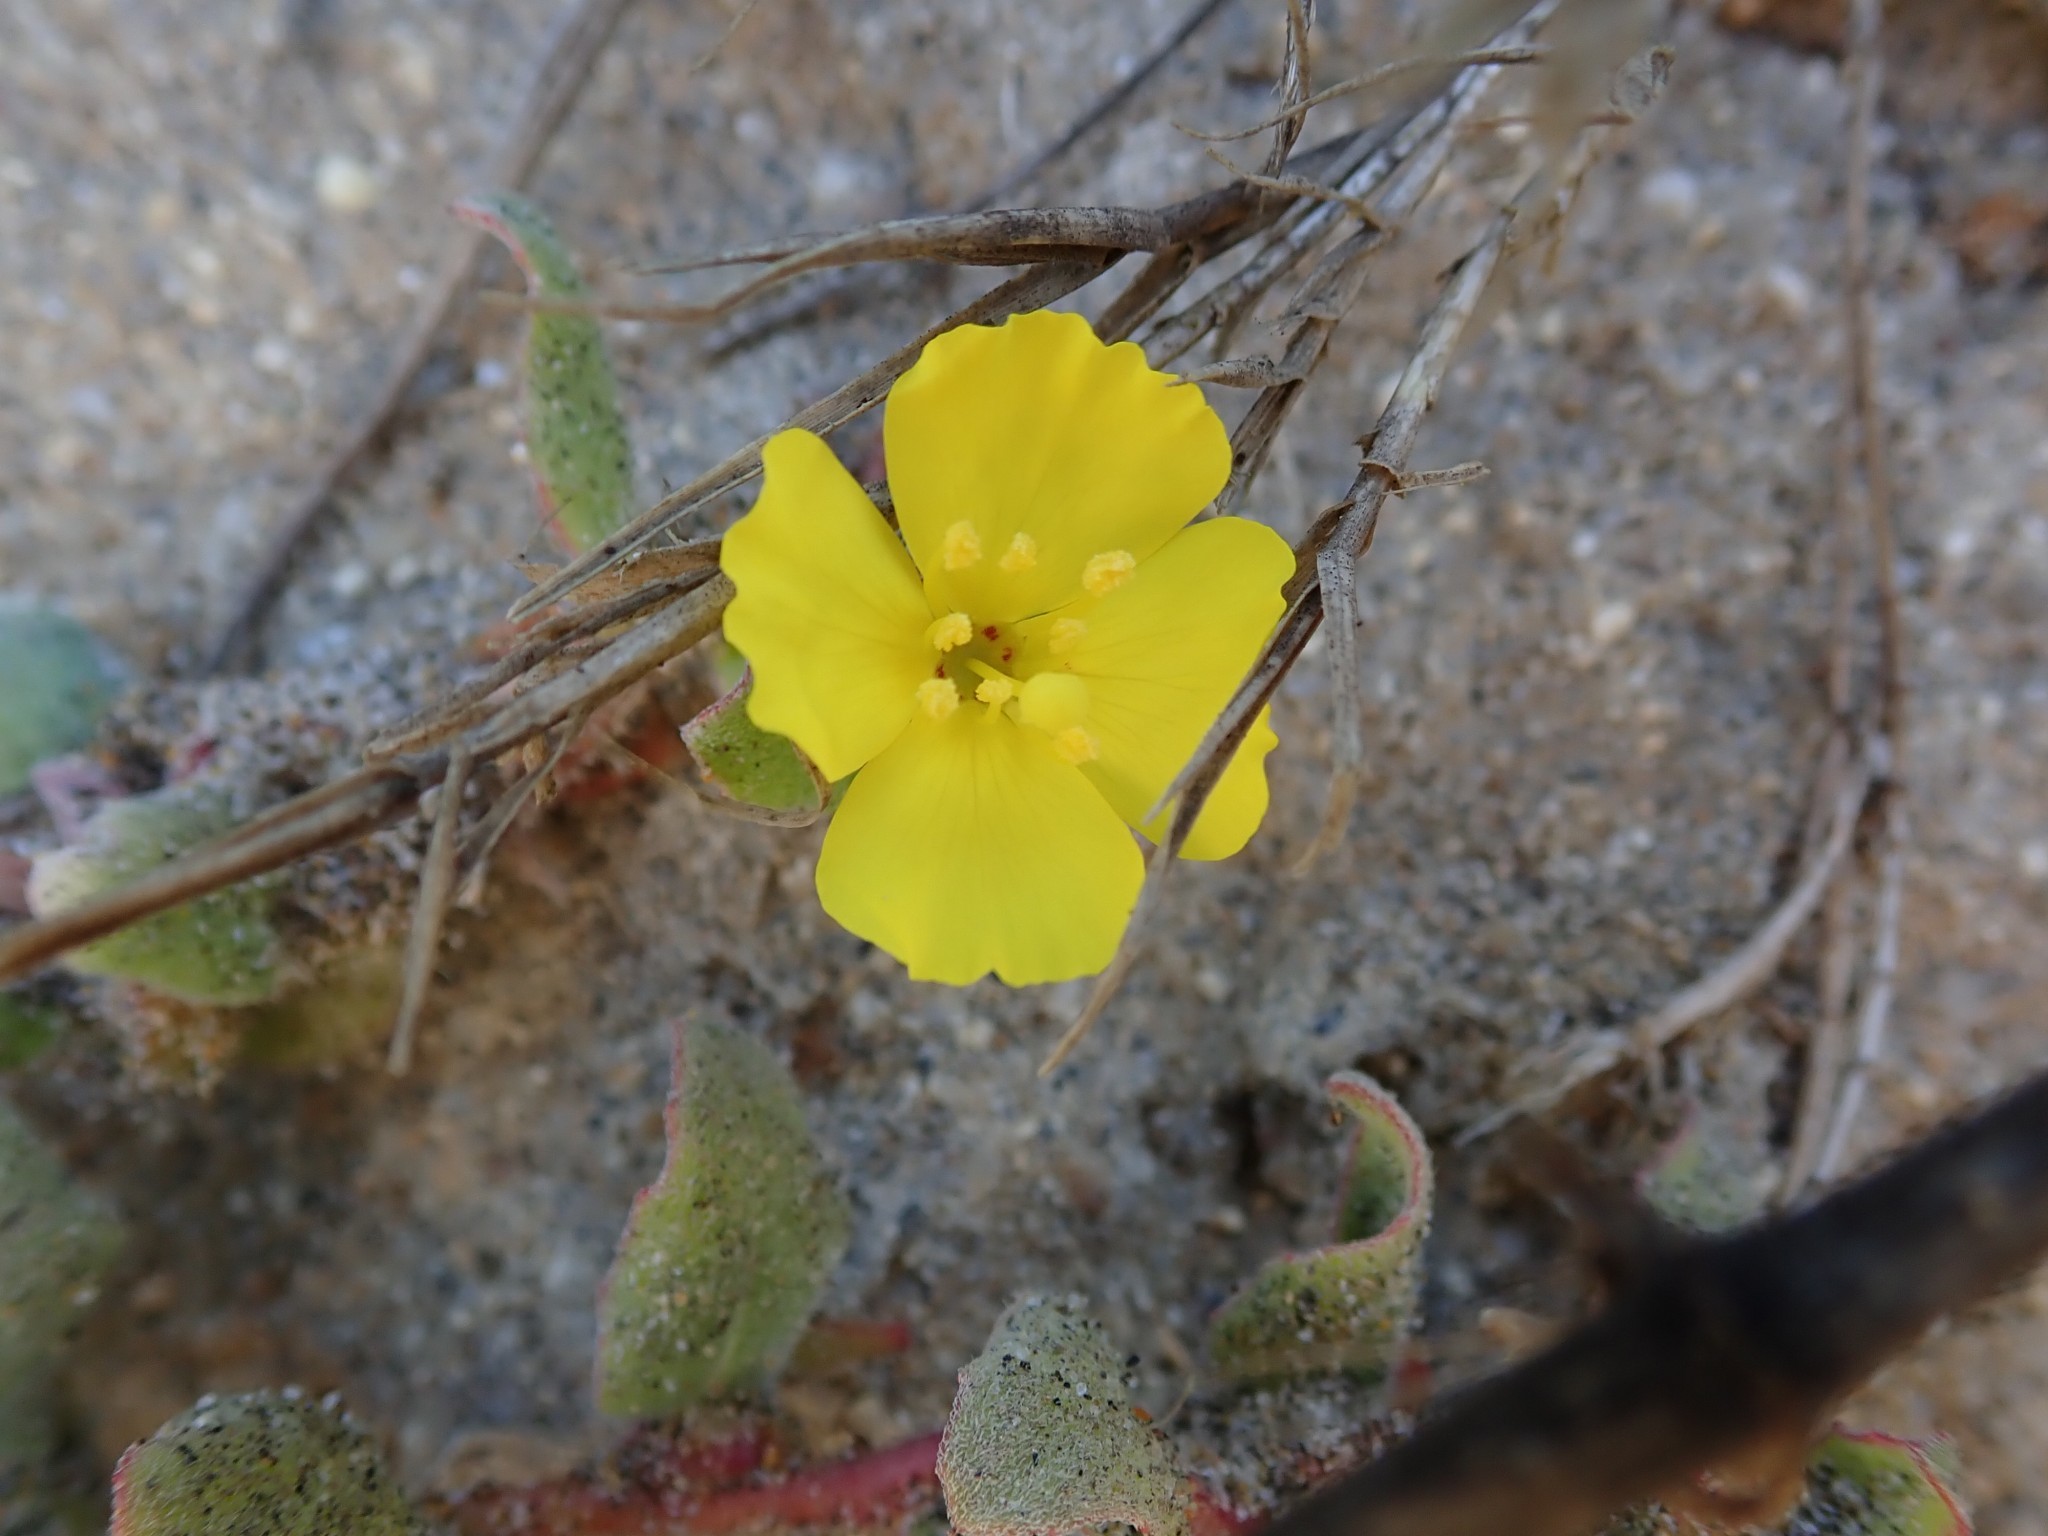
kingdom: Plantae
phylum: Tracheophyta
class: Magnoliopsida
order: Myrtales
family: Onagraceae
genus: Camissoniopsis
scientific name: Camissoniopsis cheiranthifolia
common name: Beach suncup
